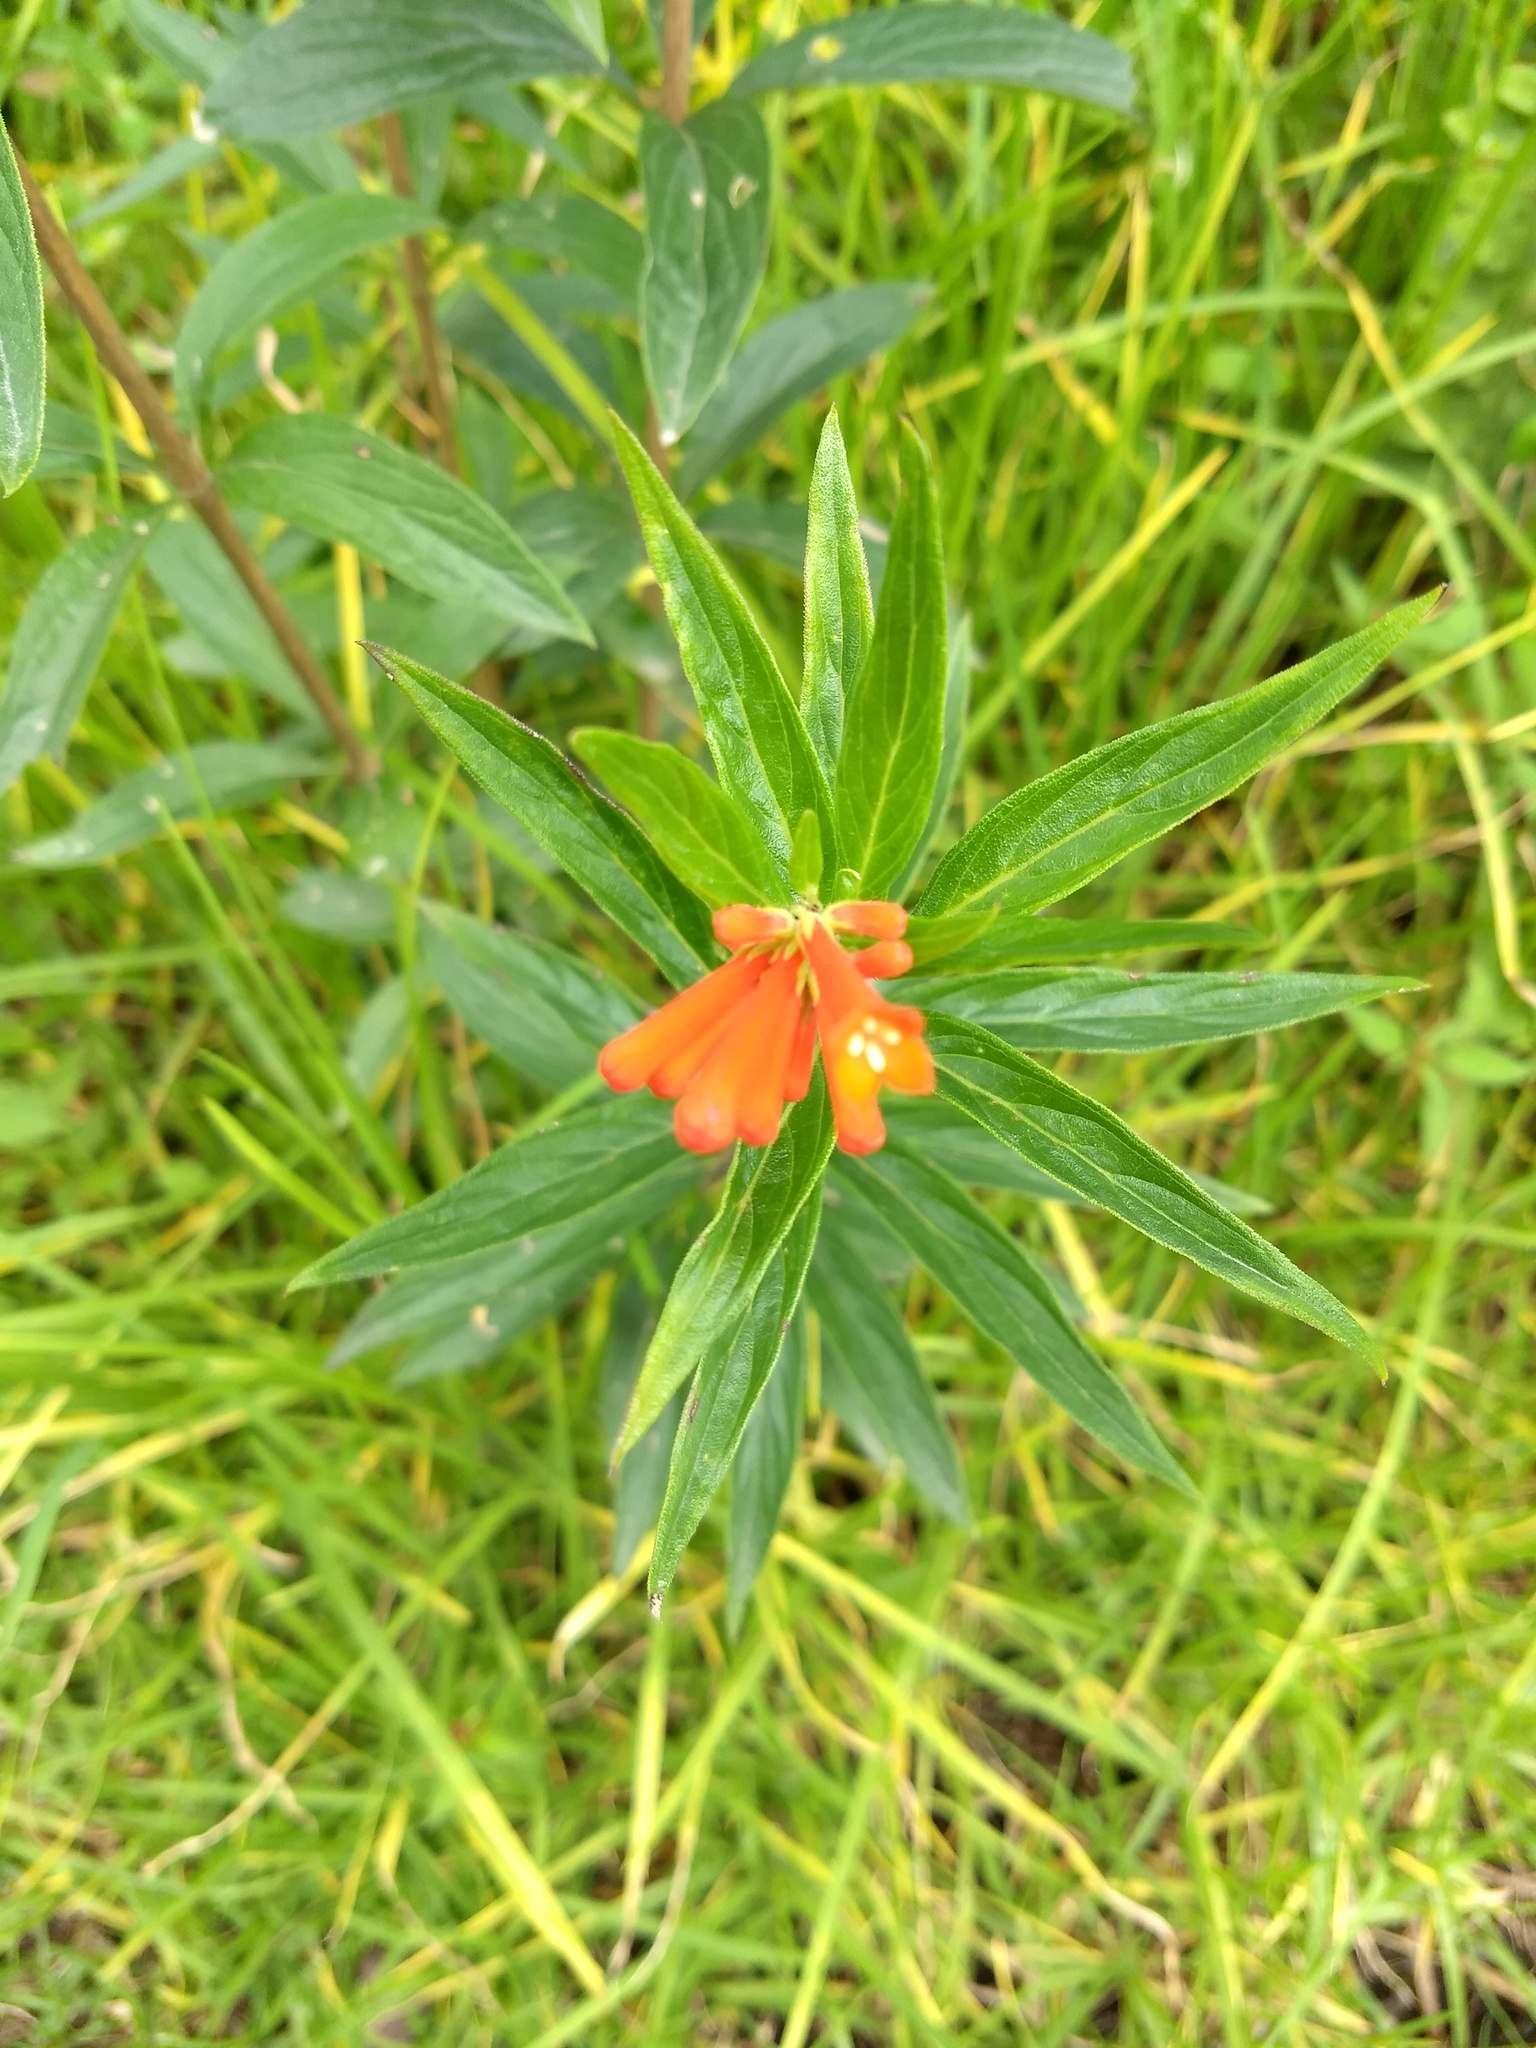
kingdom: Plantae
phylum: Tracheophyta
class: Magnoliopsida
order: Gentianales
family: Rubiaceae
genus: Bouvardia
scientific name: Bouvardia ternifolia
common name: Scarlet bouvardia
